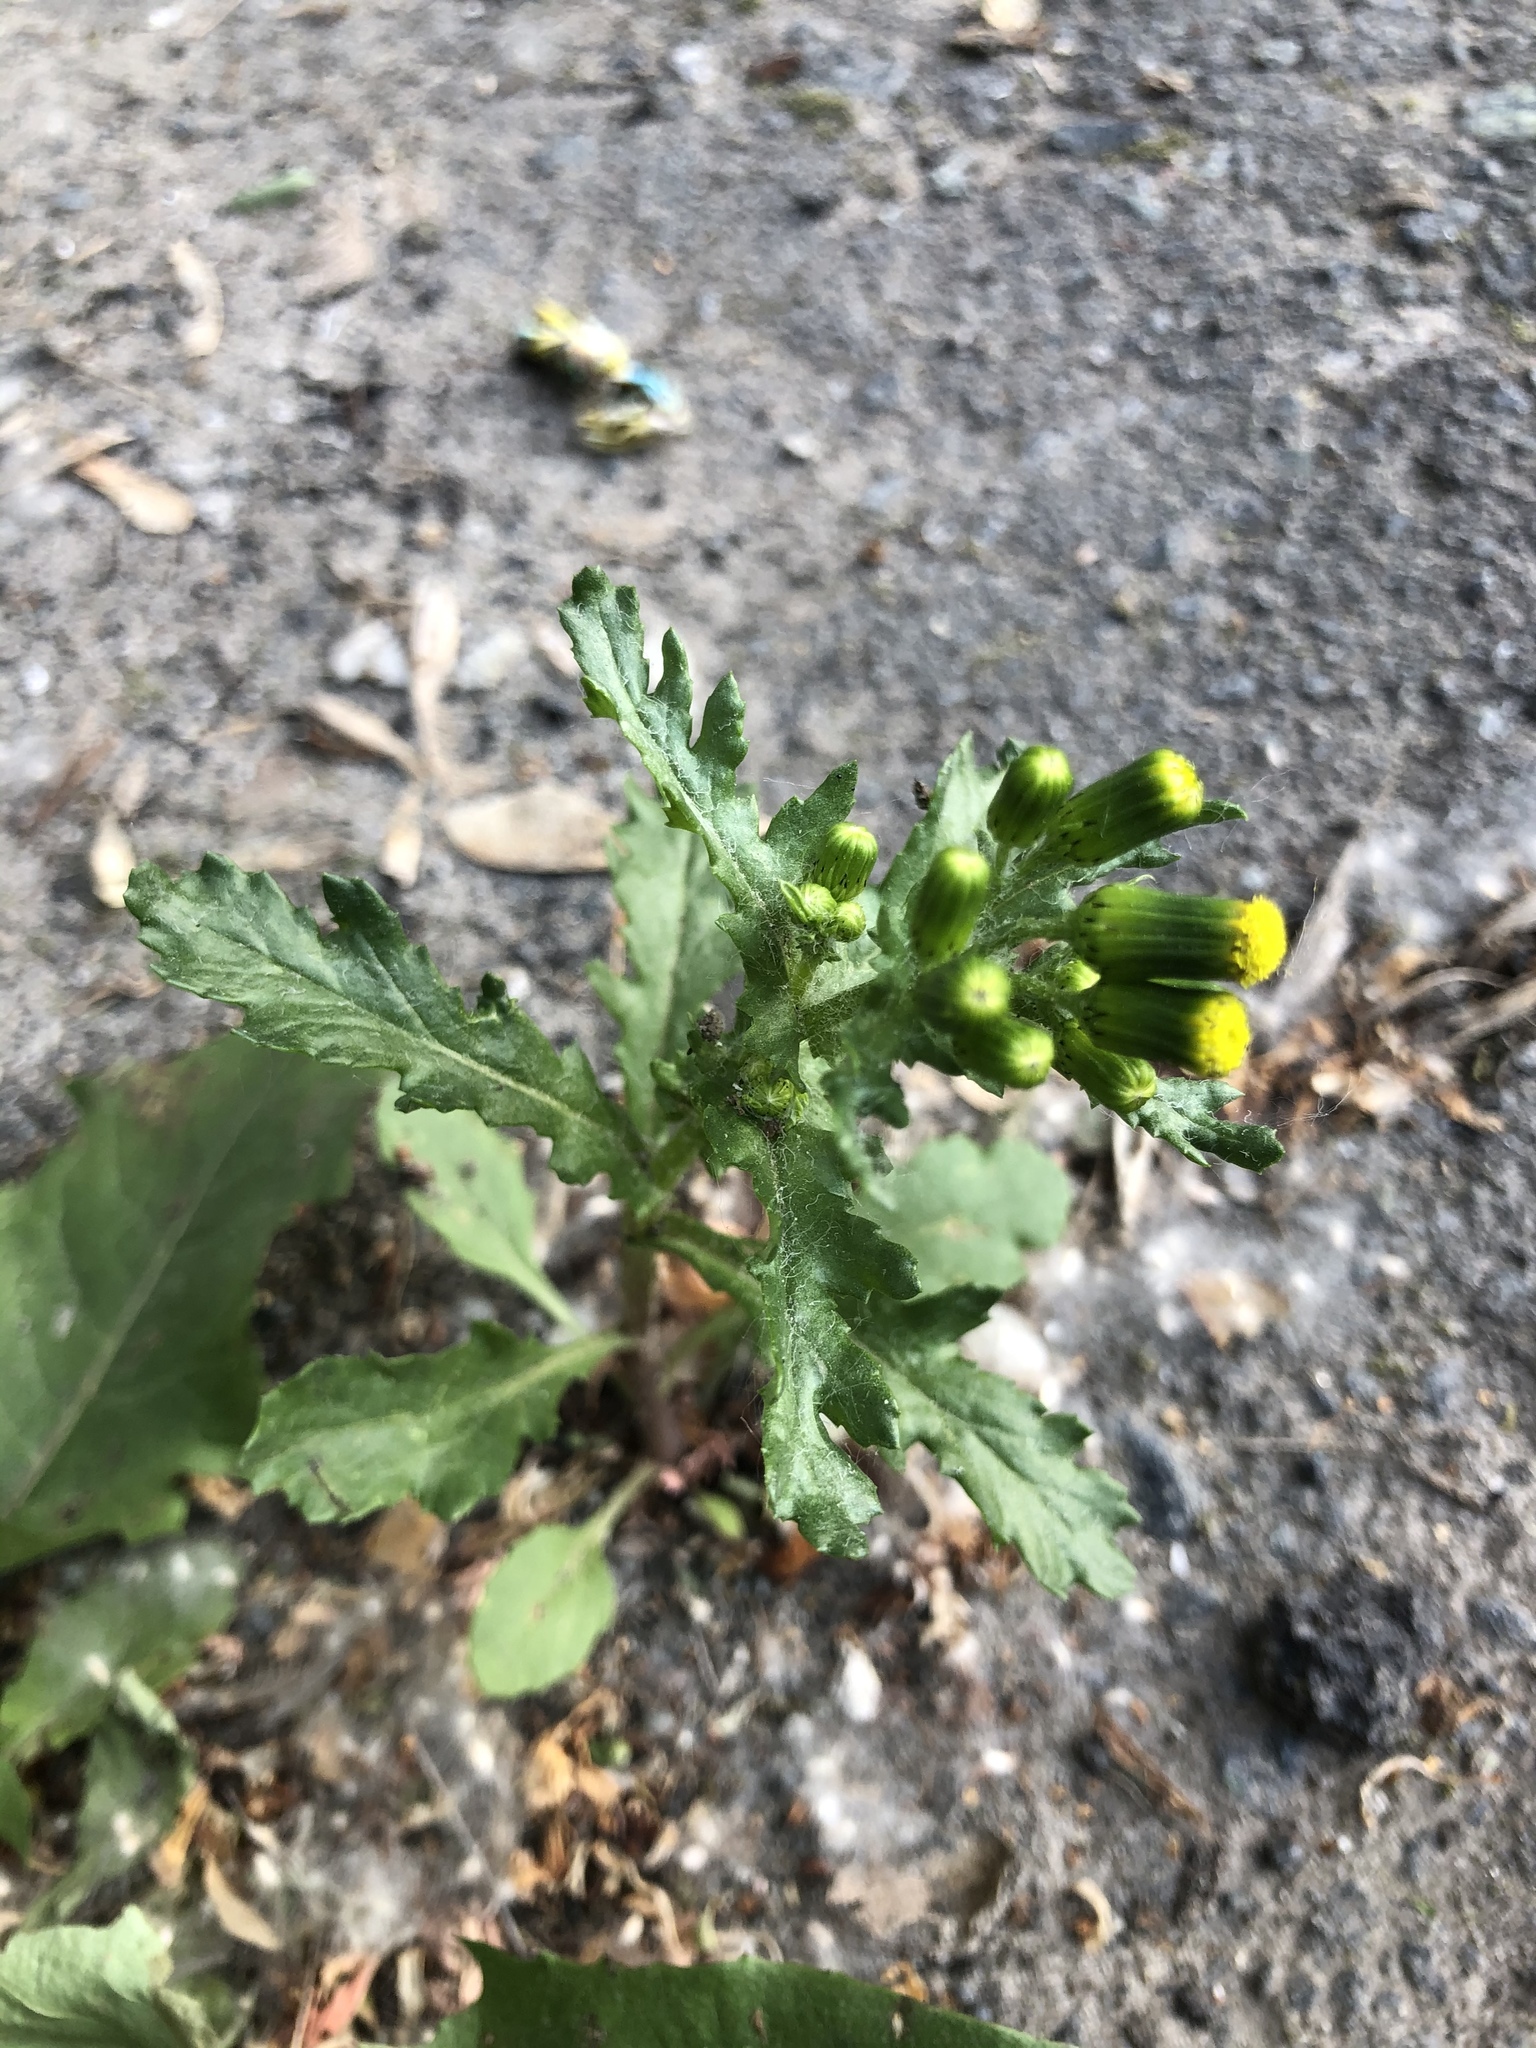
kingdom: Plantae
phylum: Tracheophyta
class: Magnoliopsida
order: Asterales
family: Asteraceae
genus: Senecio
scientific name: Senecio vulgaris
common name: Old-man-in-the-spring
